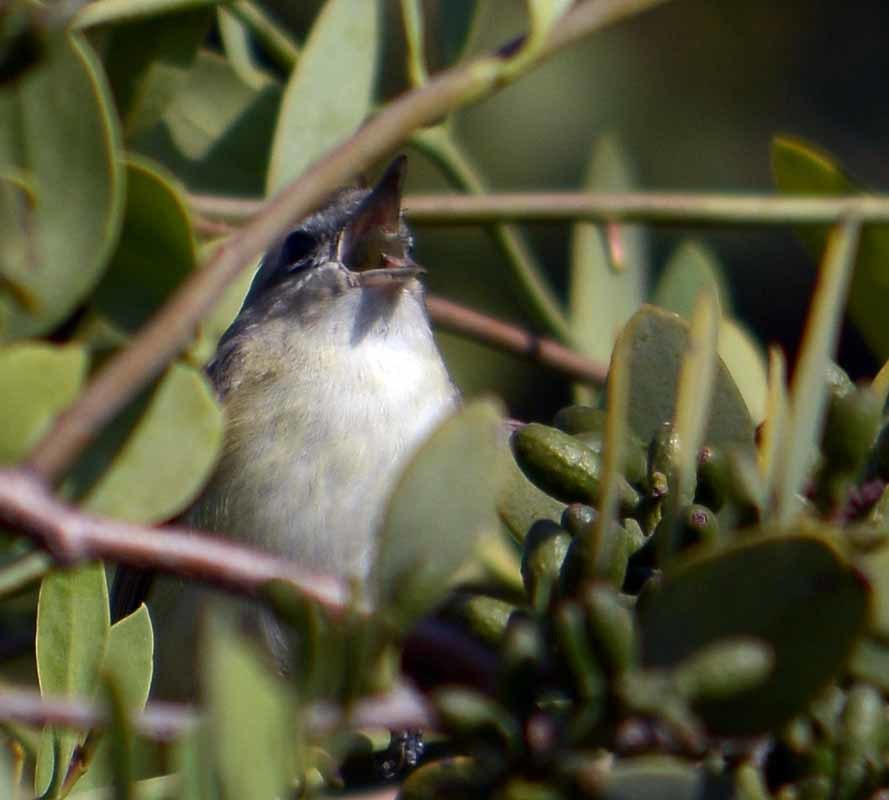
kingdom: Animalia
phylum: Chordata
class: Aves
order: Passeriformes
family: Vireonidae
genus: Vireo
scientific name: Vireo gilvus
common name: Warbling vireo
